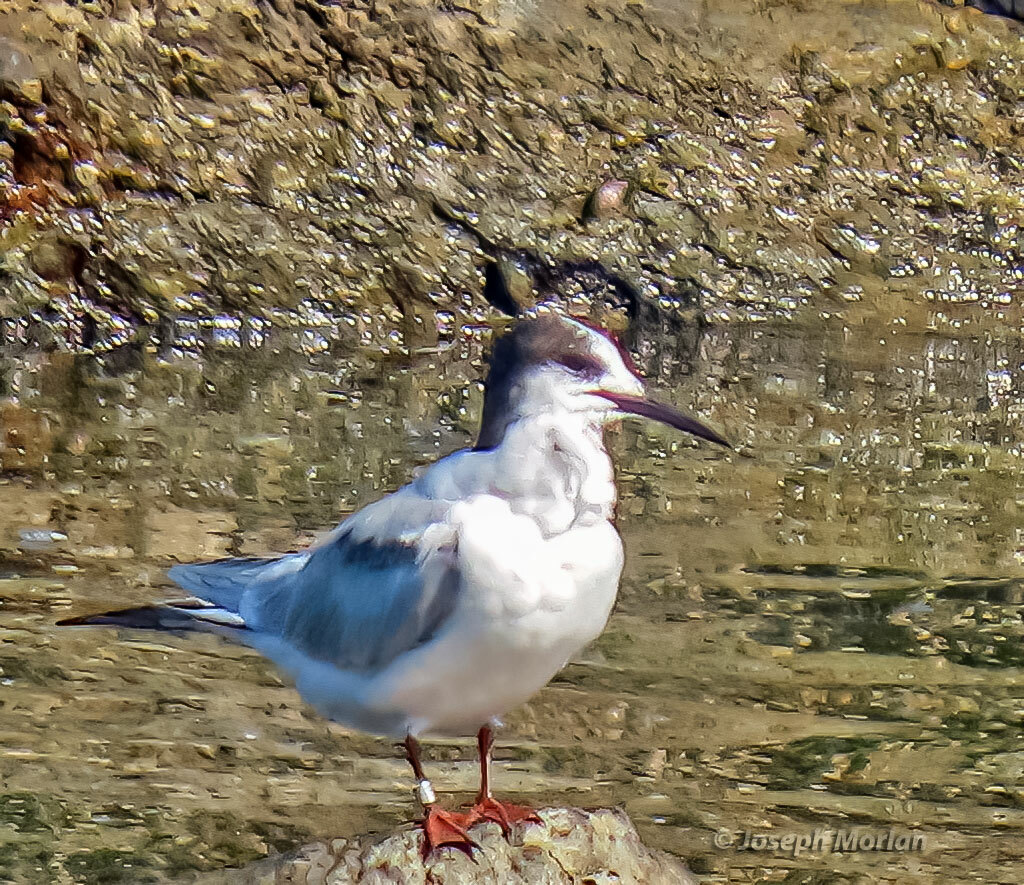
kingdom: Animalia
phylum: Chordata
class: Aves
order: Charadriiformes
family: Laridae
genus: Sterna
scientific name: Sterna hirundo
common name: Common tern
